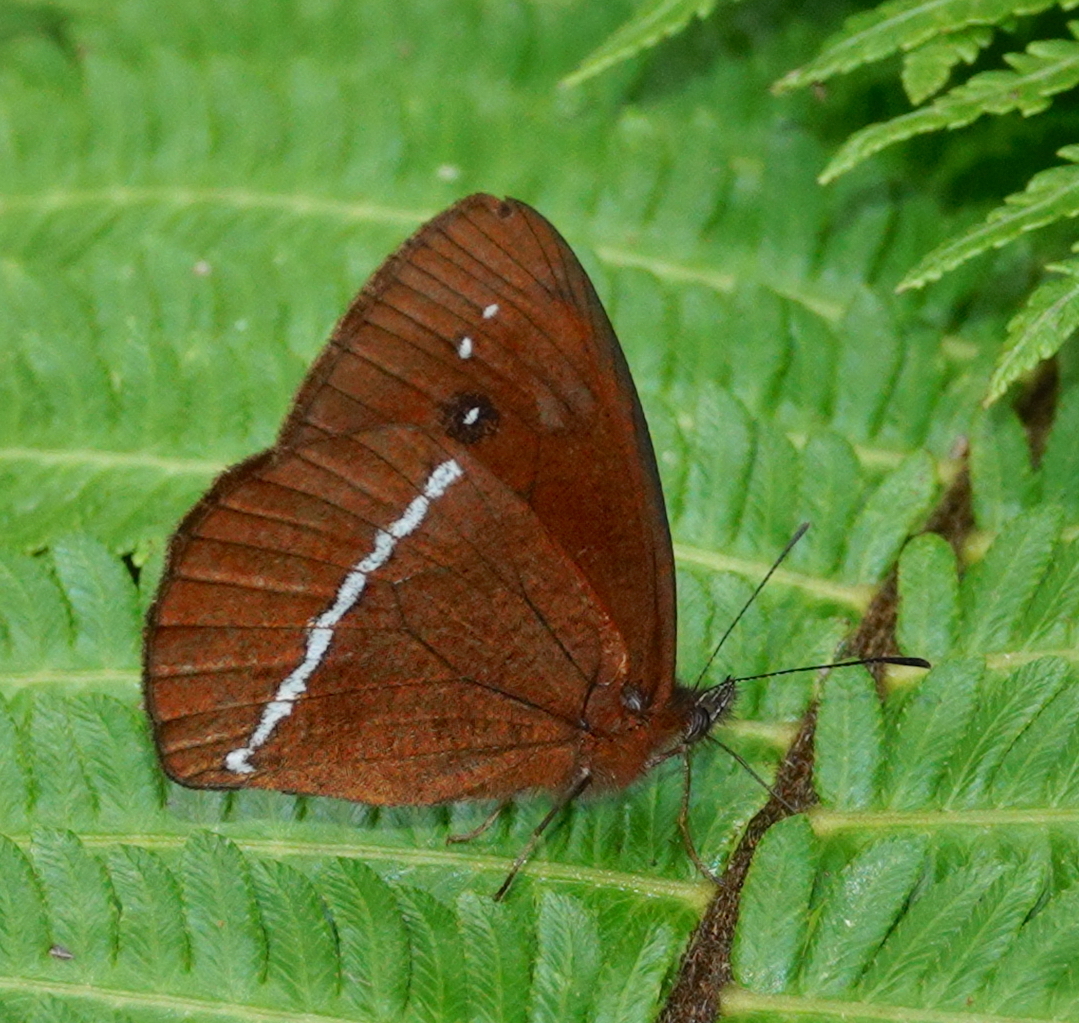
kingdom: Animalia
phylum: Arthropoda
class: Insecta
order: Lepidoptera
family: Nymphalidae
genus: Lymanopoda
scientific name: Lymanopoda albocincta
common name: White-banded mountain satyr
